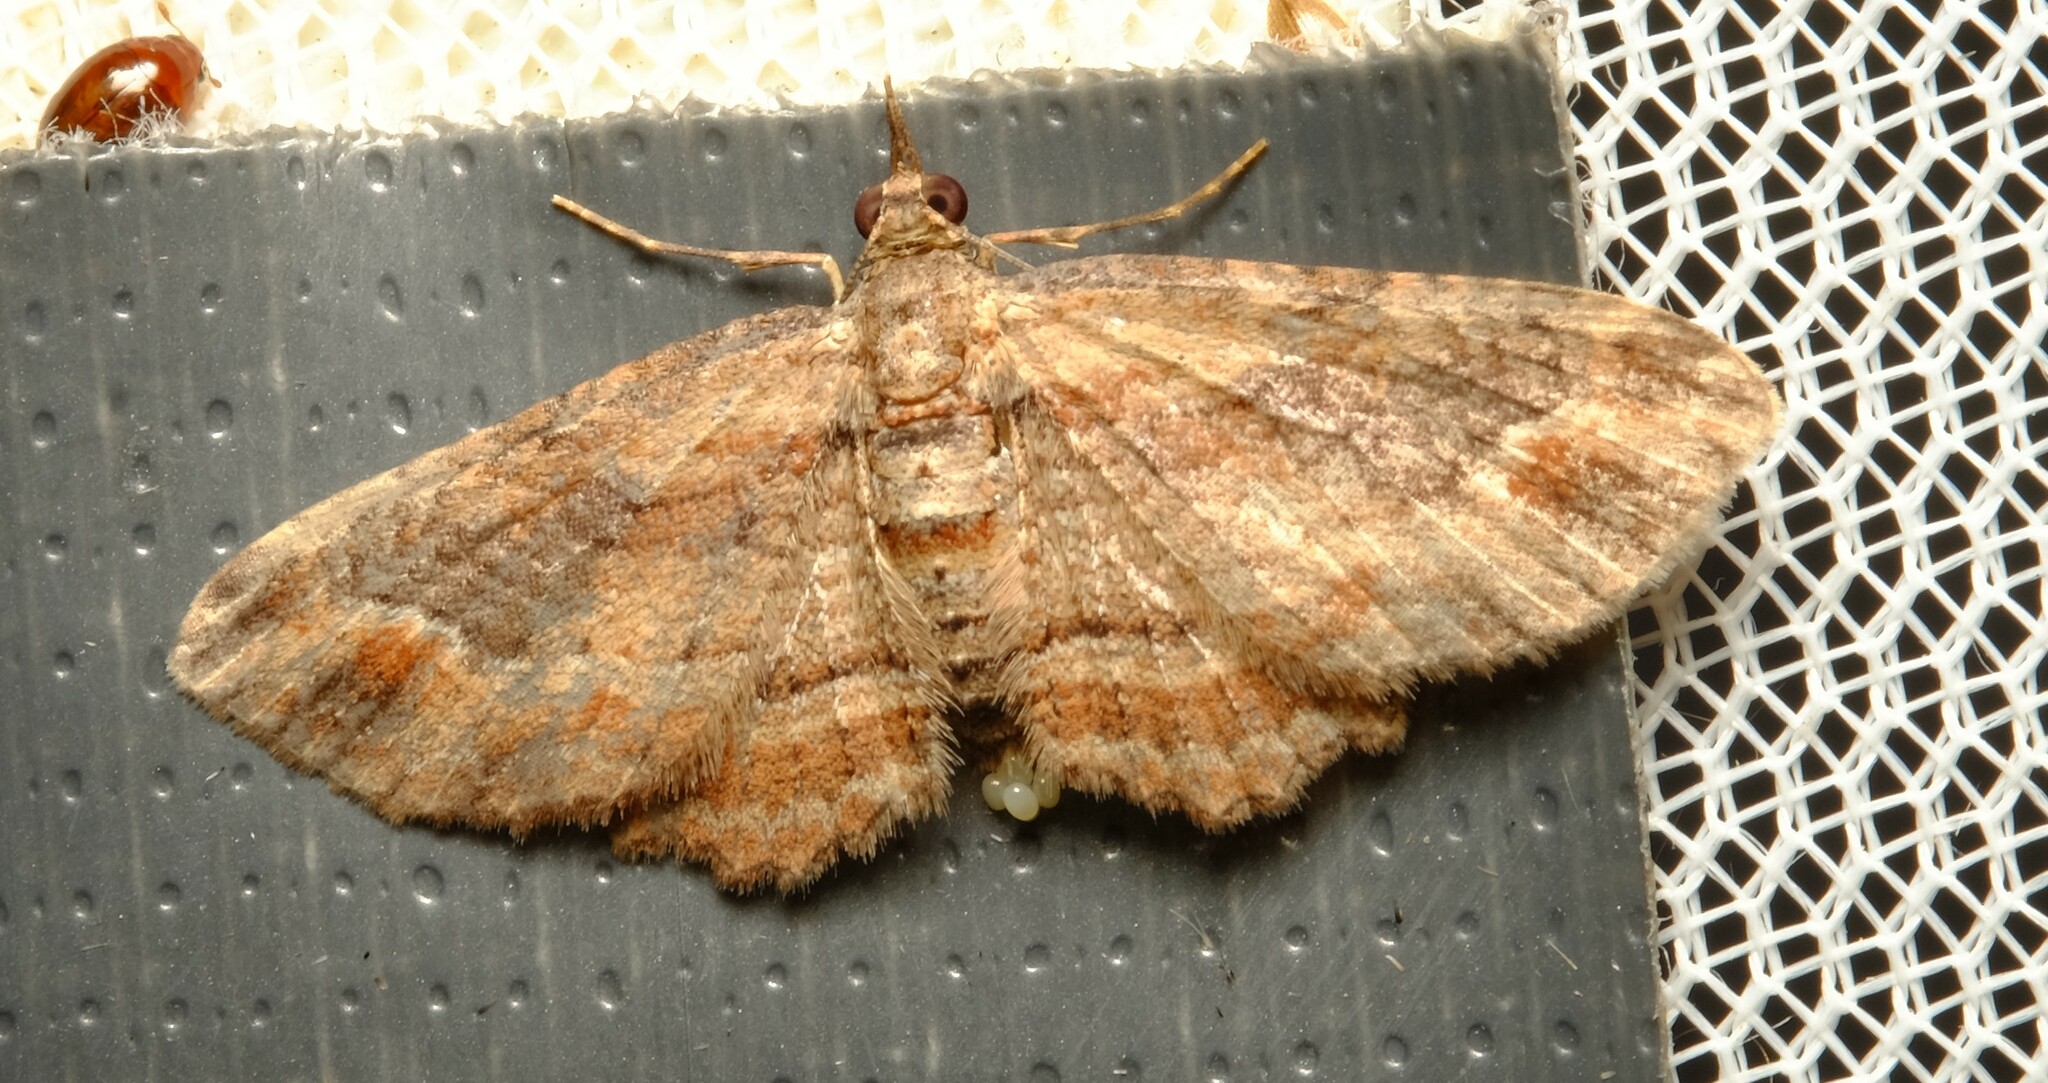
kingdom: Animalia
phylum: Arthropoda
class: Insecta
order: Lepidoptera
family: Geometridae
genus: Chloroclystis
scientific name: Chloroclystis filata
